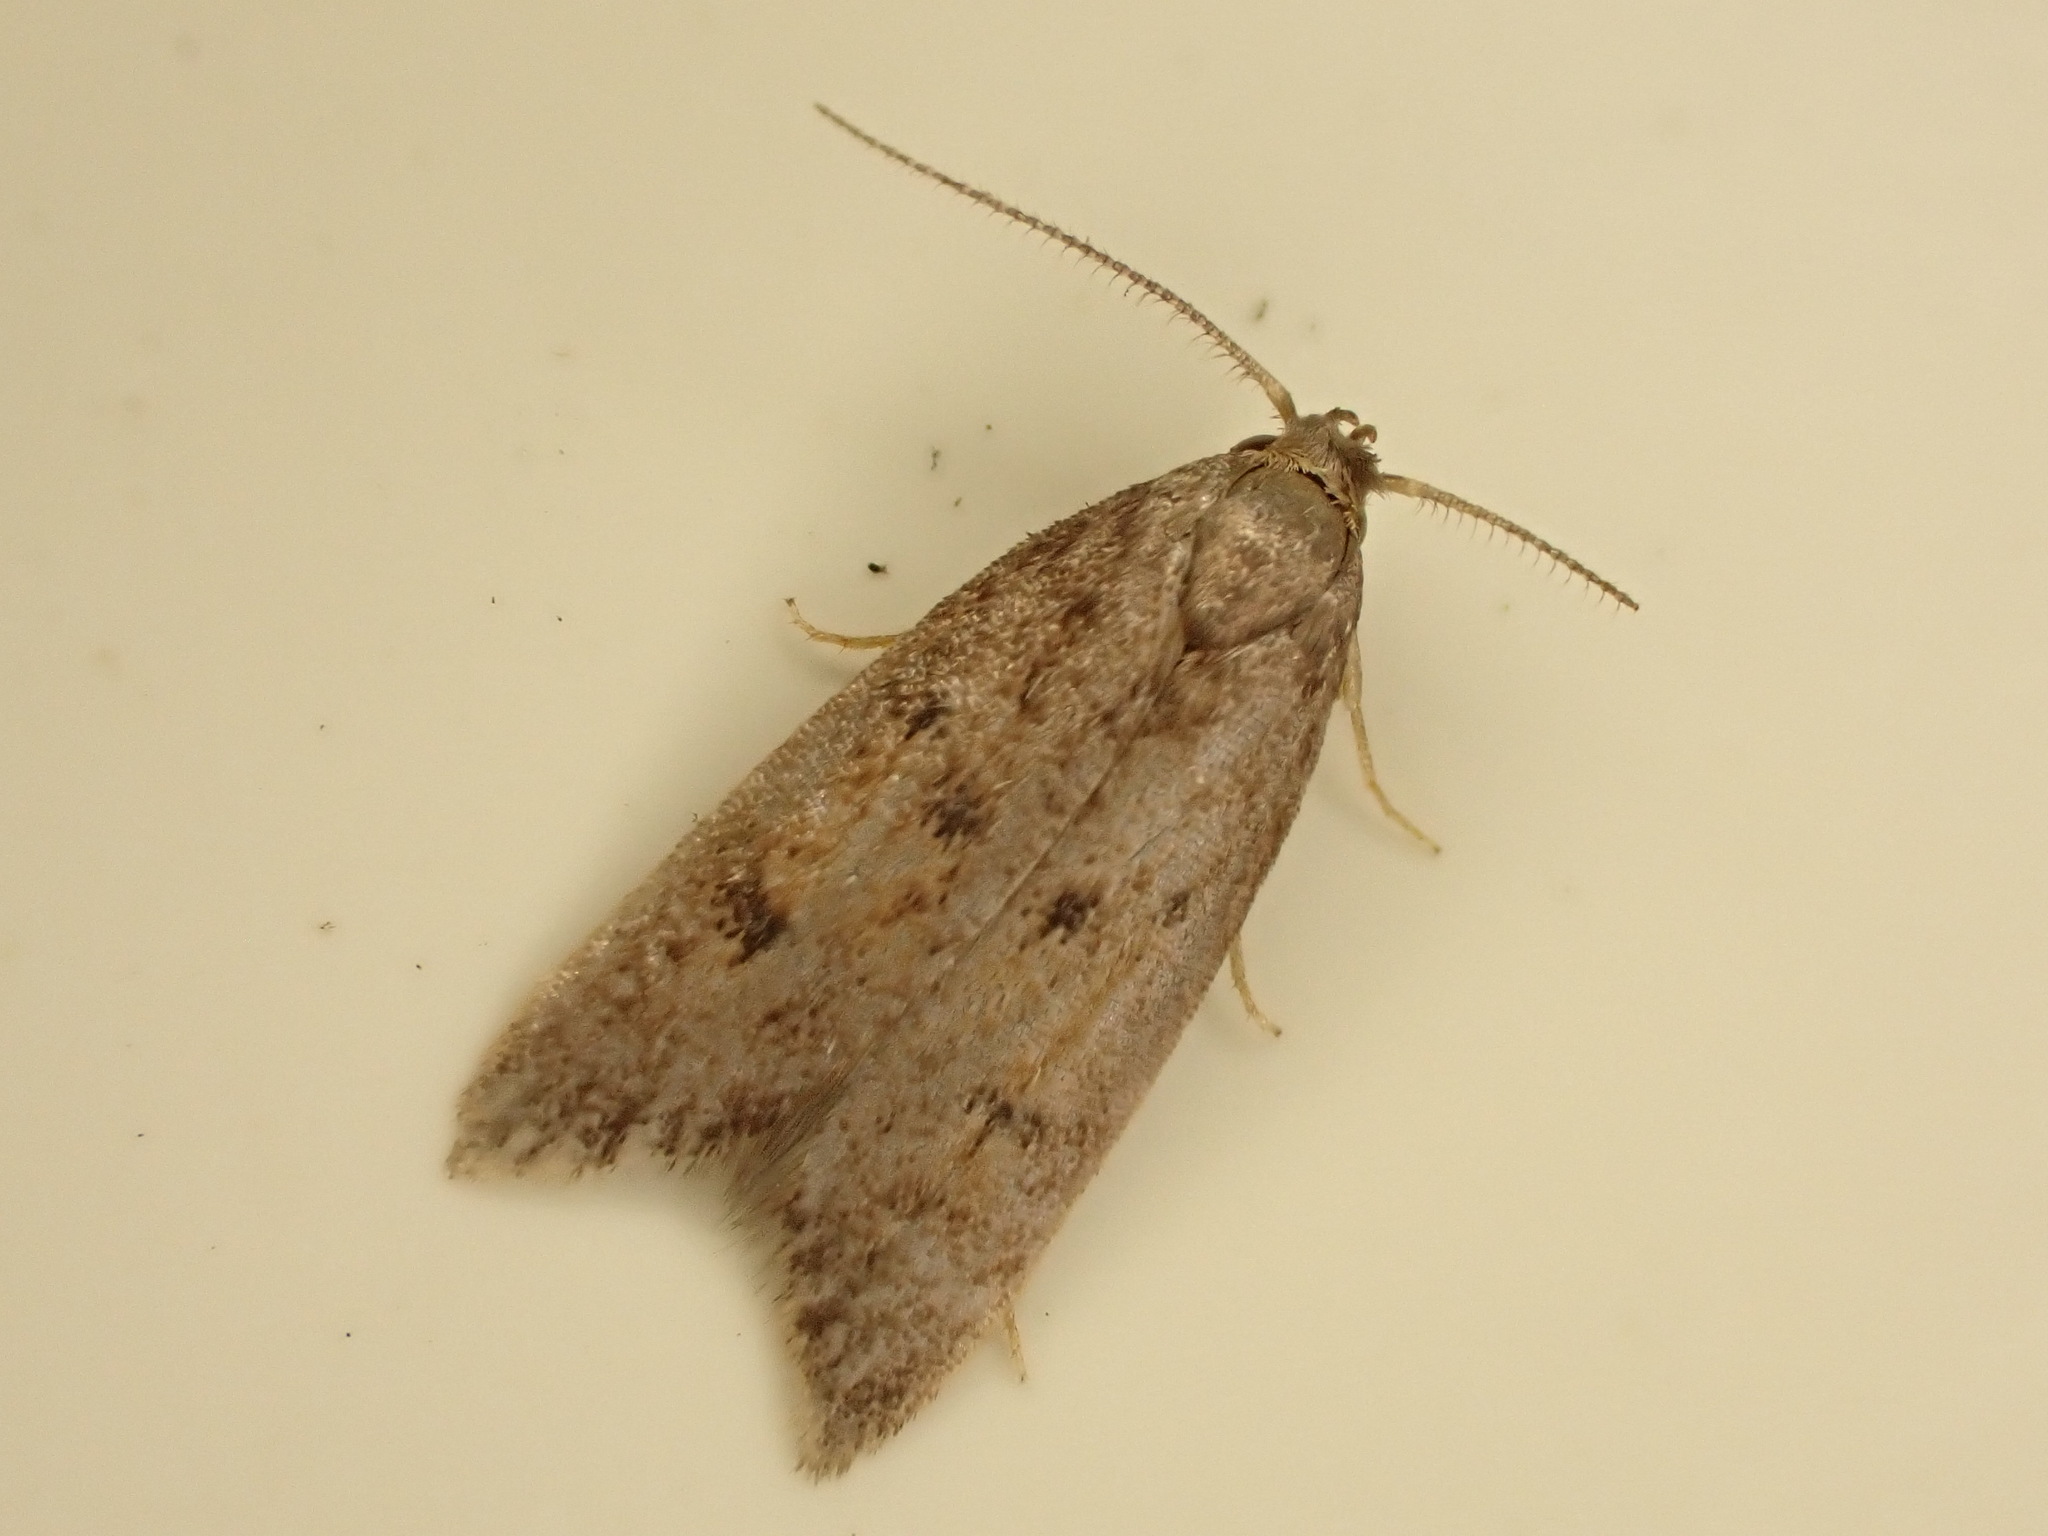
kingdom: Animalia
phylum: Arthropoda
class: Insecta
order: Lepidoptera
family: Oecophoridae
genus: Tachystola
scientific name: Tachystola acroxantha
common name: Ruddy streak
